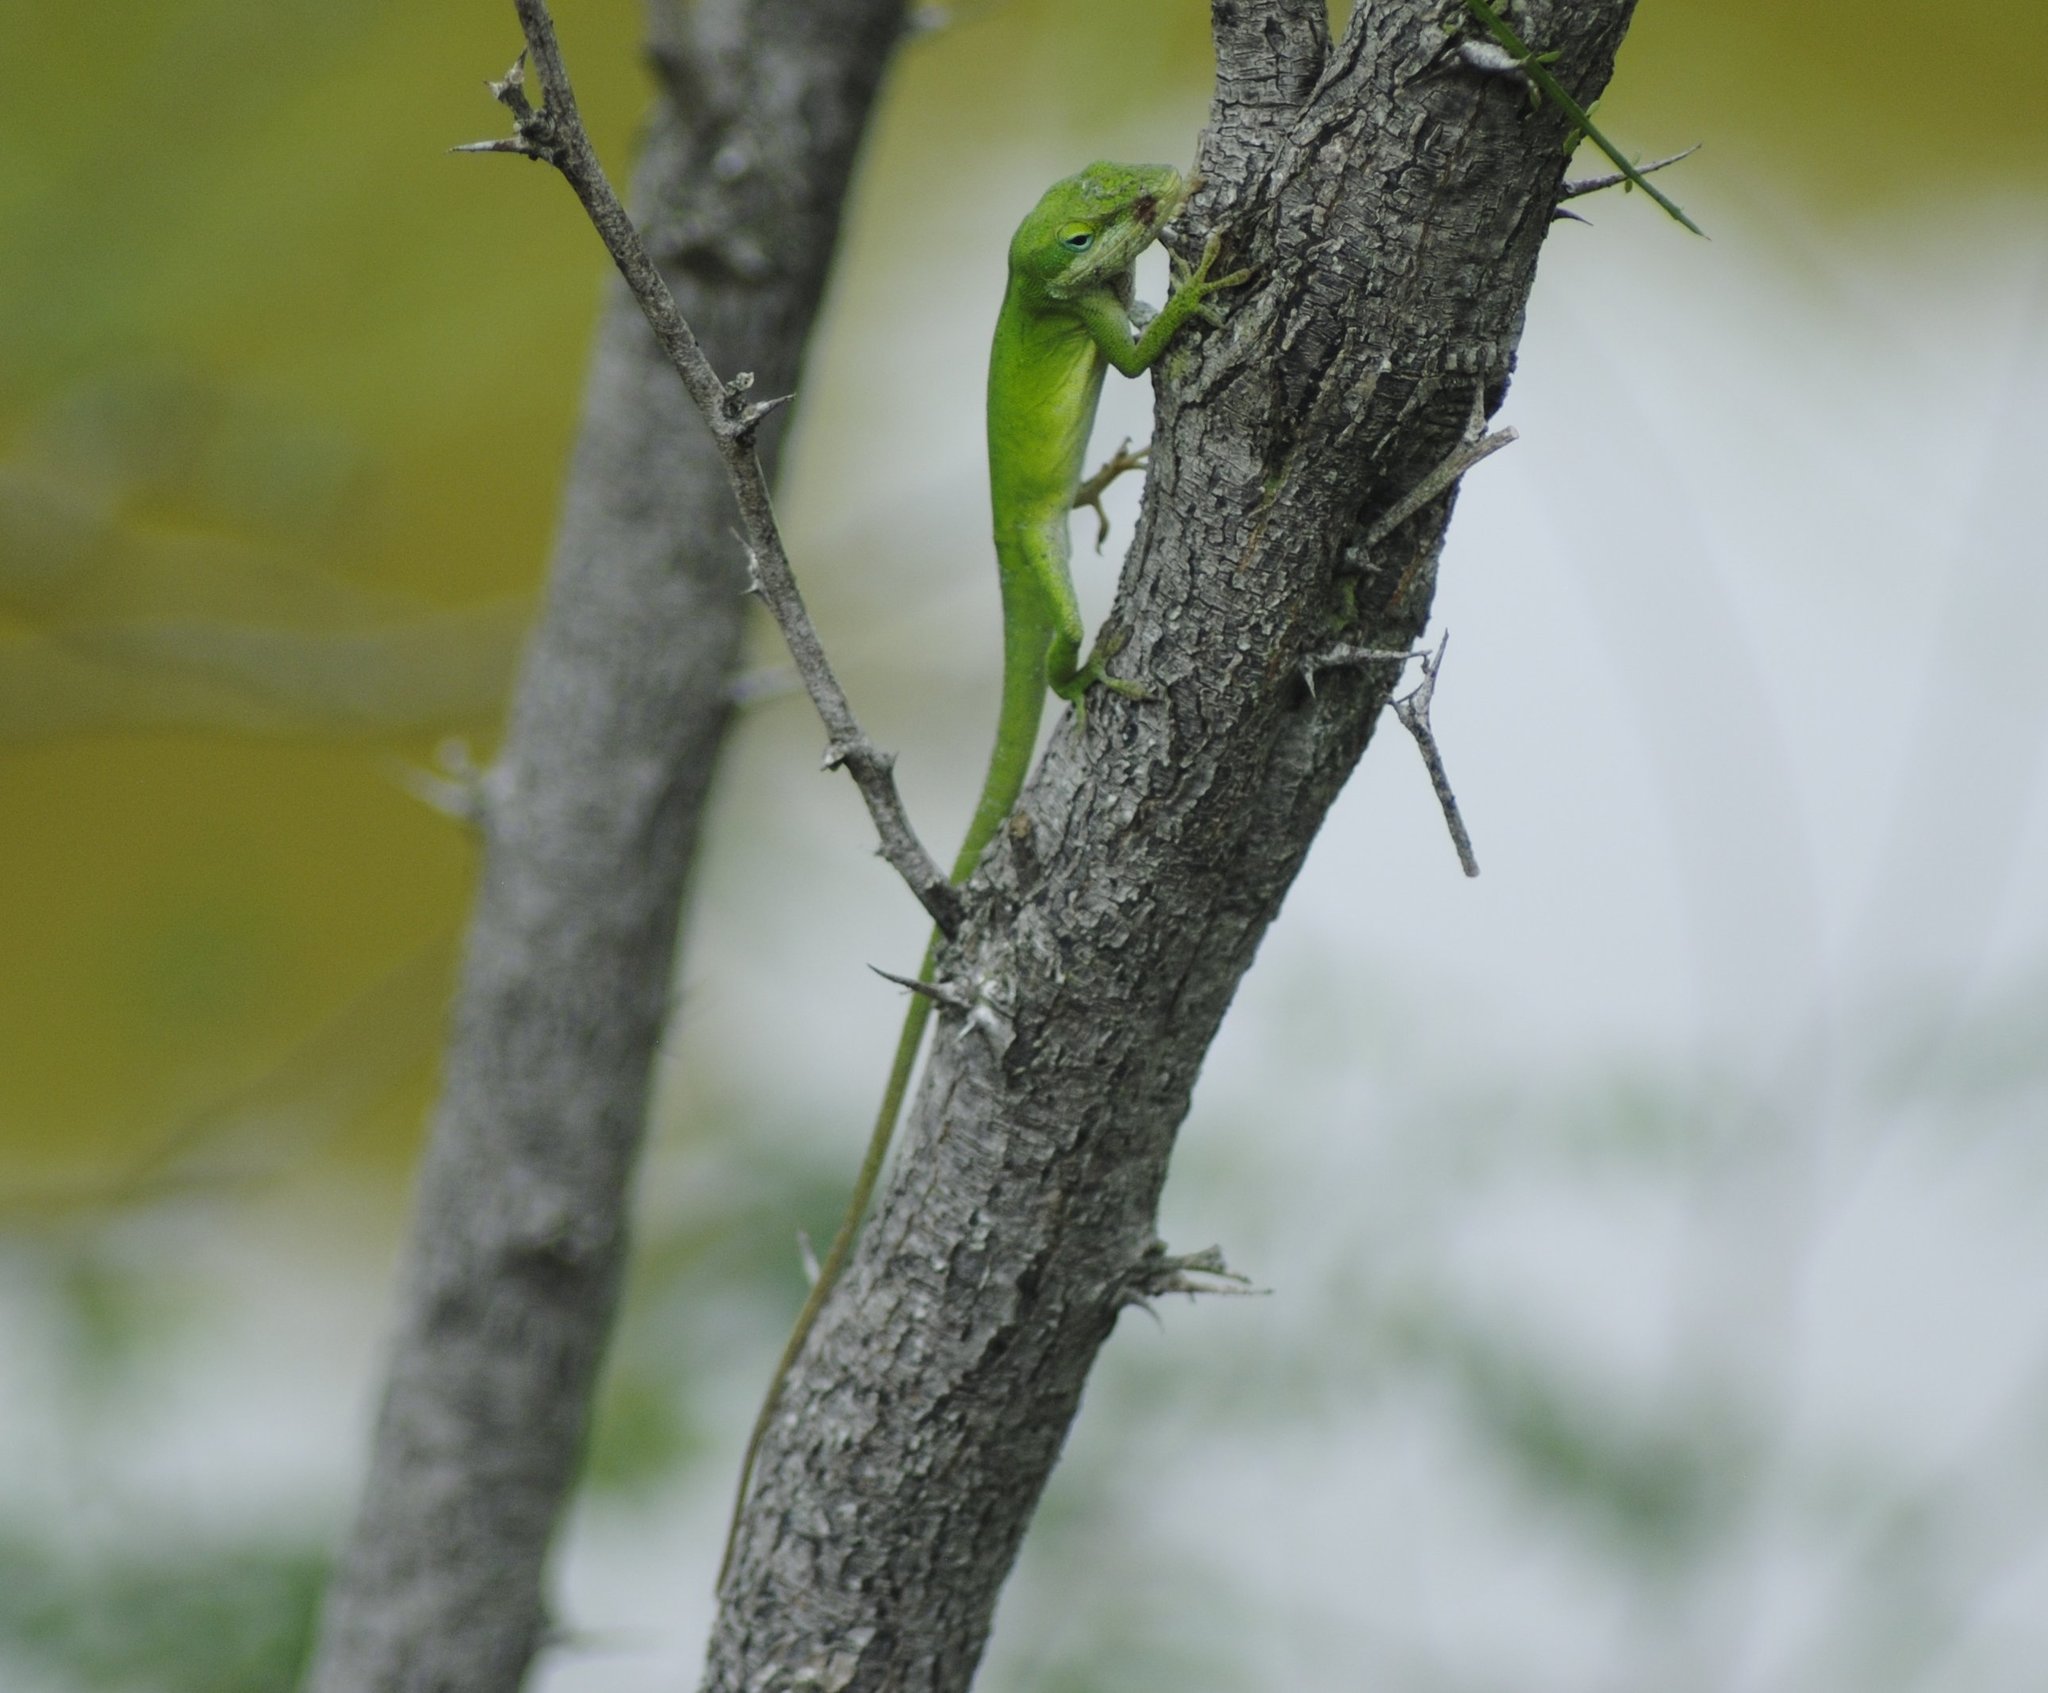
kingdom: Animalia
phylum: Chordata
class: Squamata
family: Dactyloidae
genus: Anolis
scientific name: Anolis carolinensis
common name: Green anole
